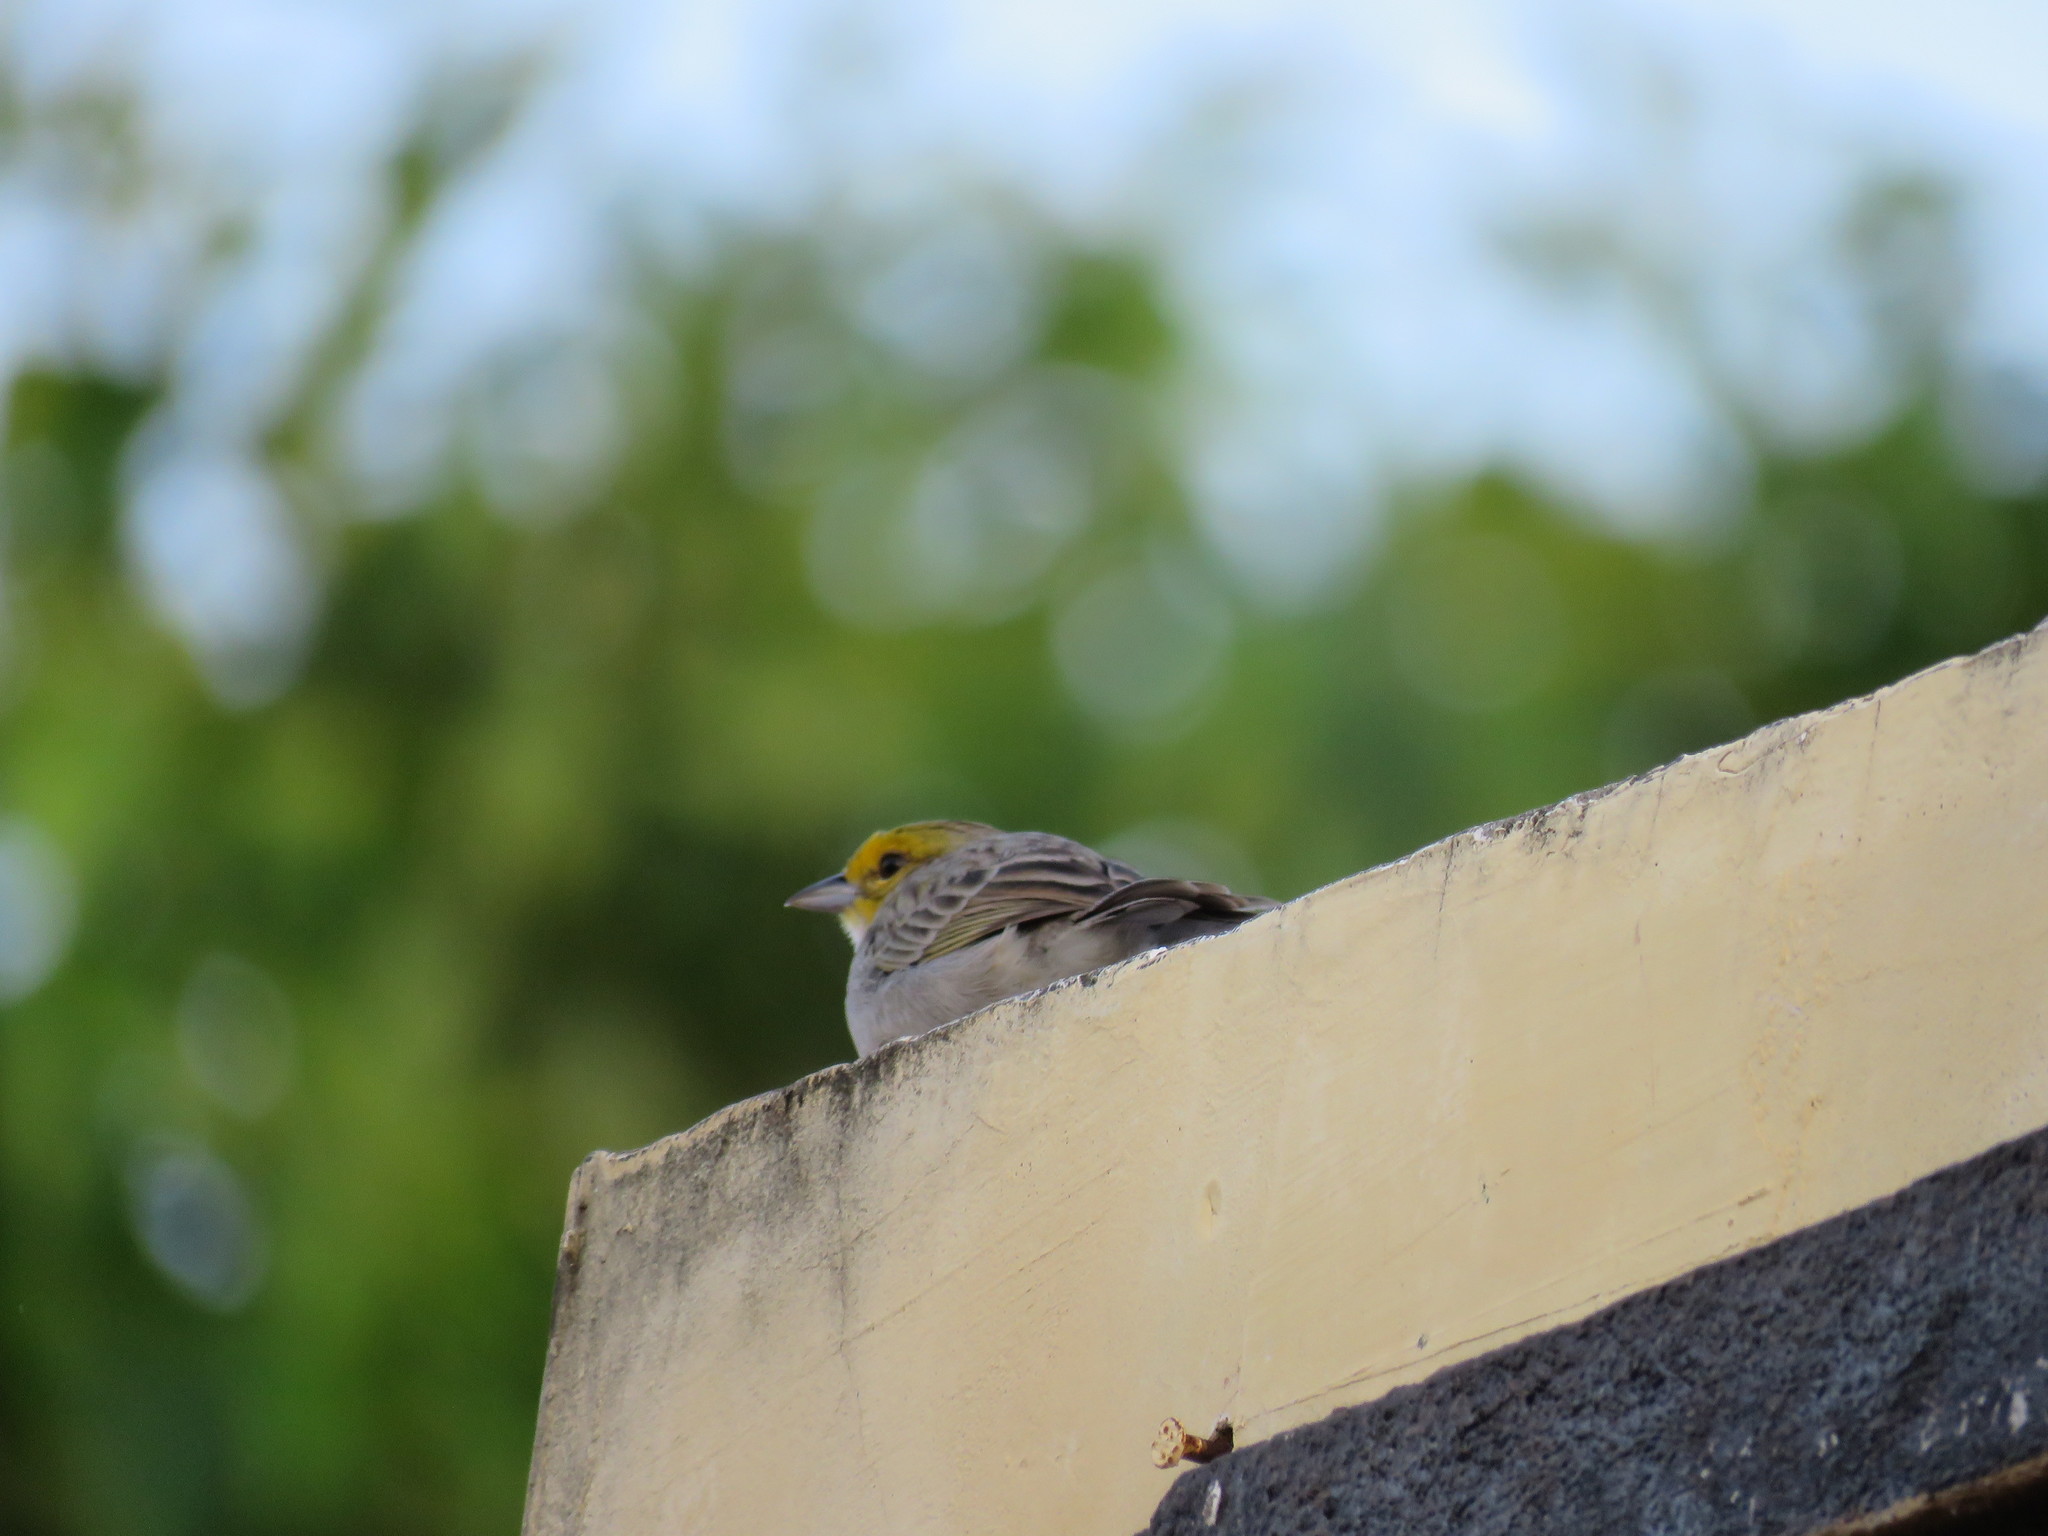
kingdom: Animalia
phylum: Chordata
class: Aves
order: Passeriformes
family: Passerellidae
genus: Ammodramus
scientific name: Ammodramus aurifrons
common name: Yellow-browed sparrow
